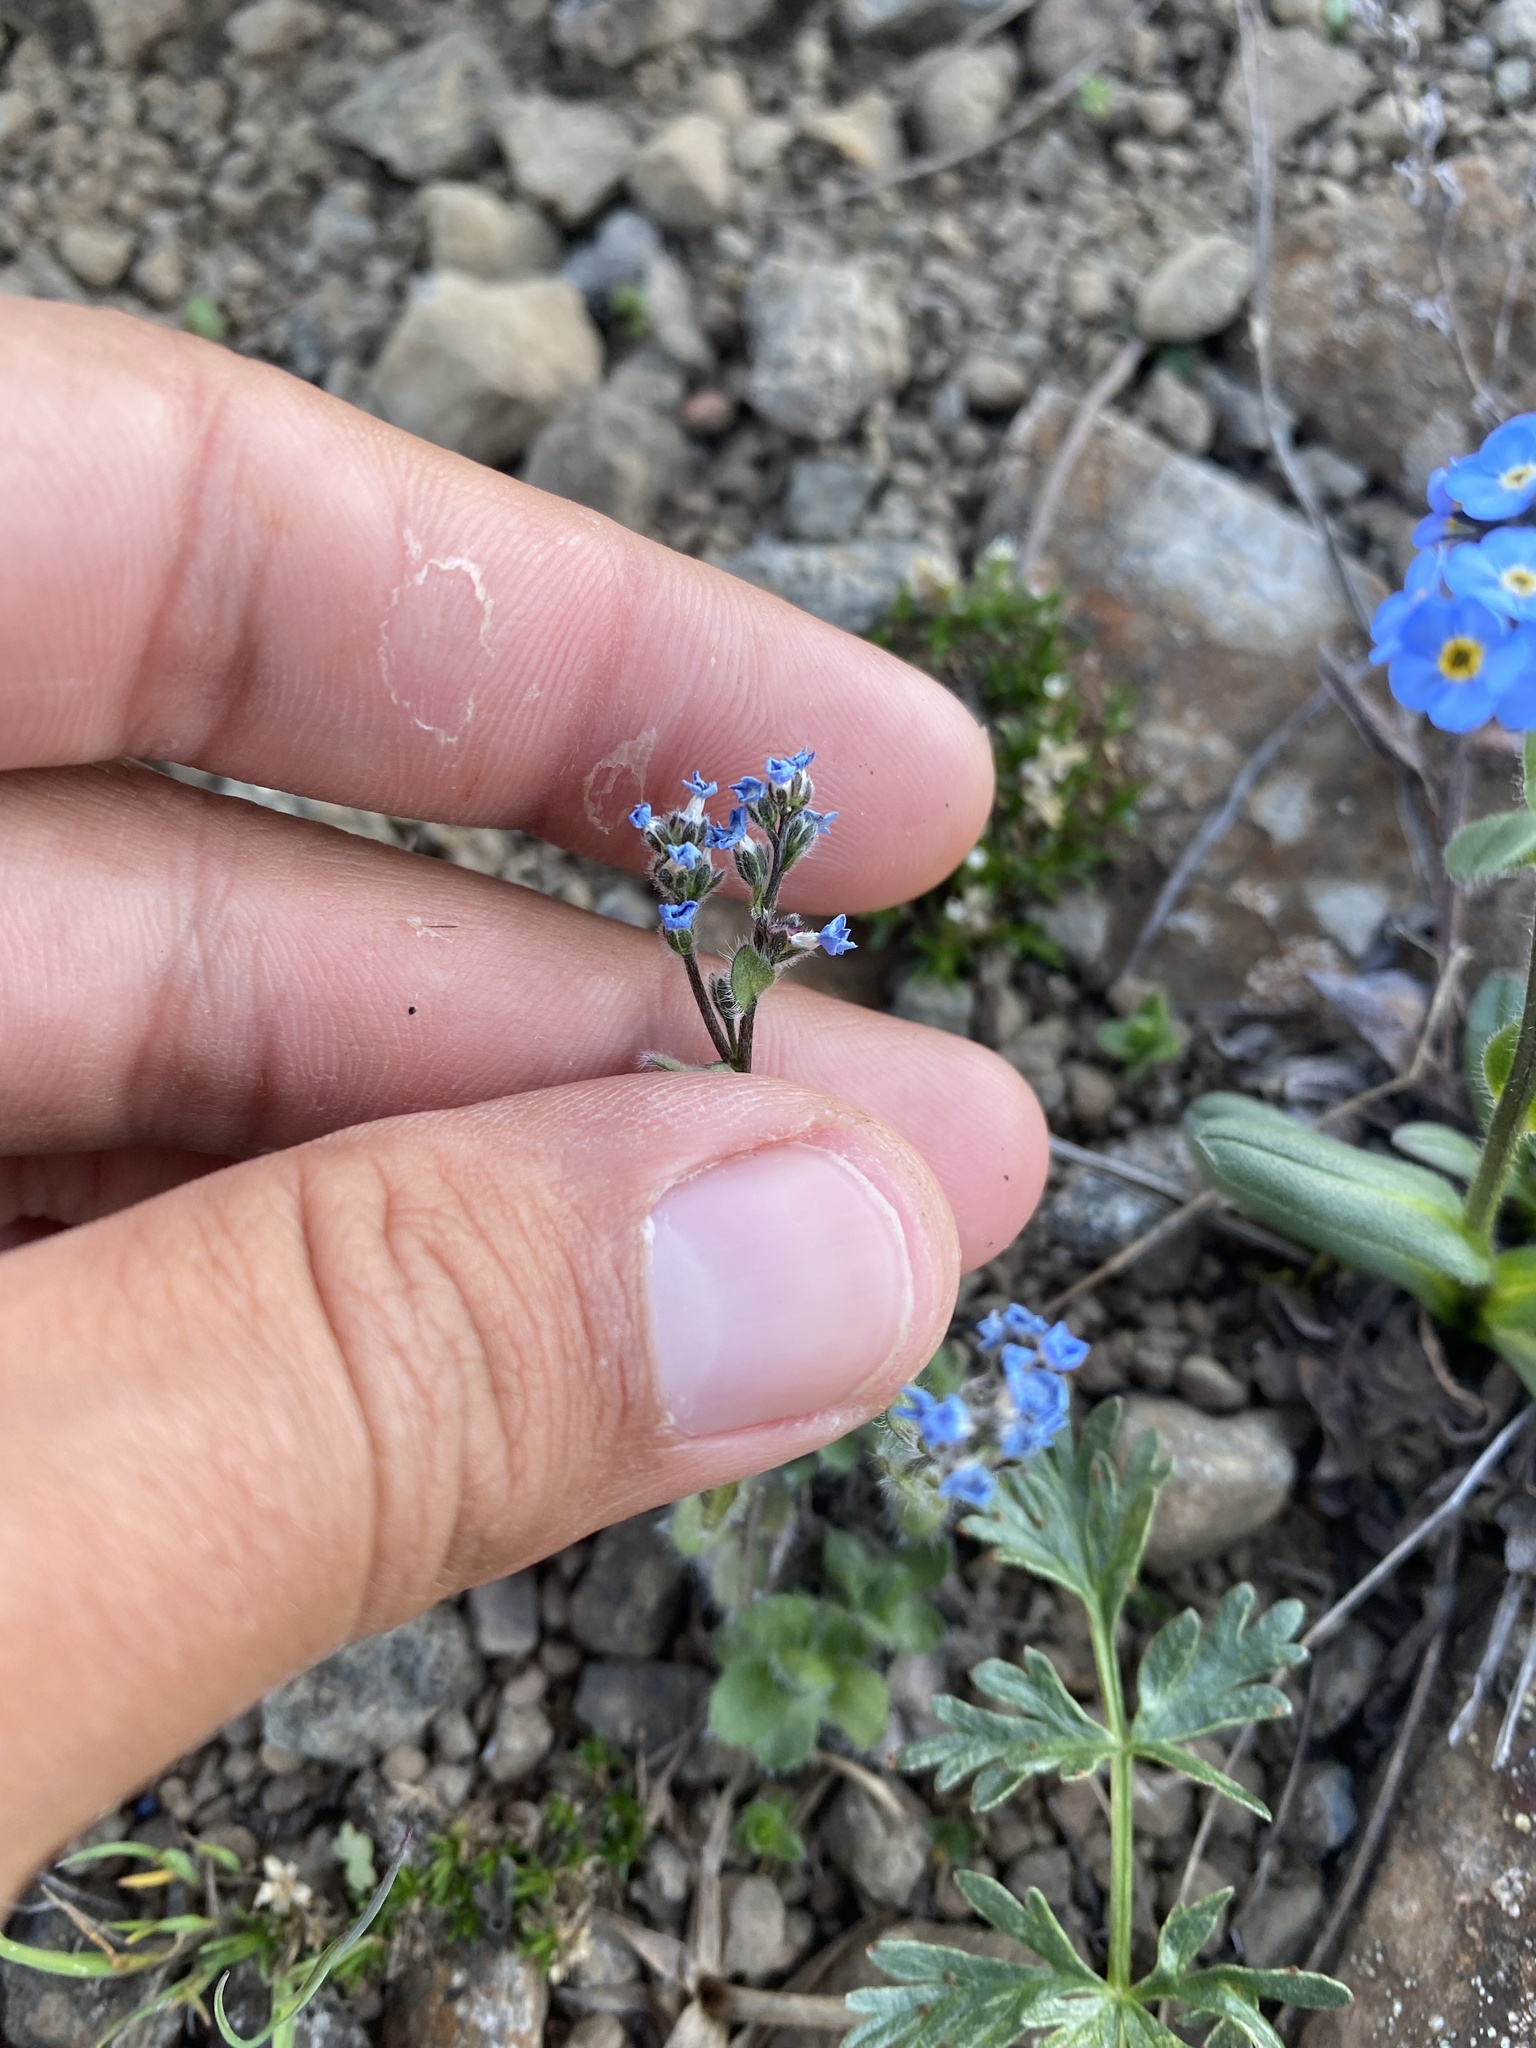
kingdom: Plantae
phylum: Tracheophyta
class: Magnoliopsida
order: Boraginales
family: Boraginaceae
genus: Eritrichium
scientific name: Eritrichium villosum
